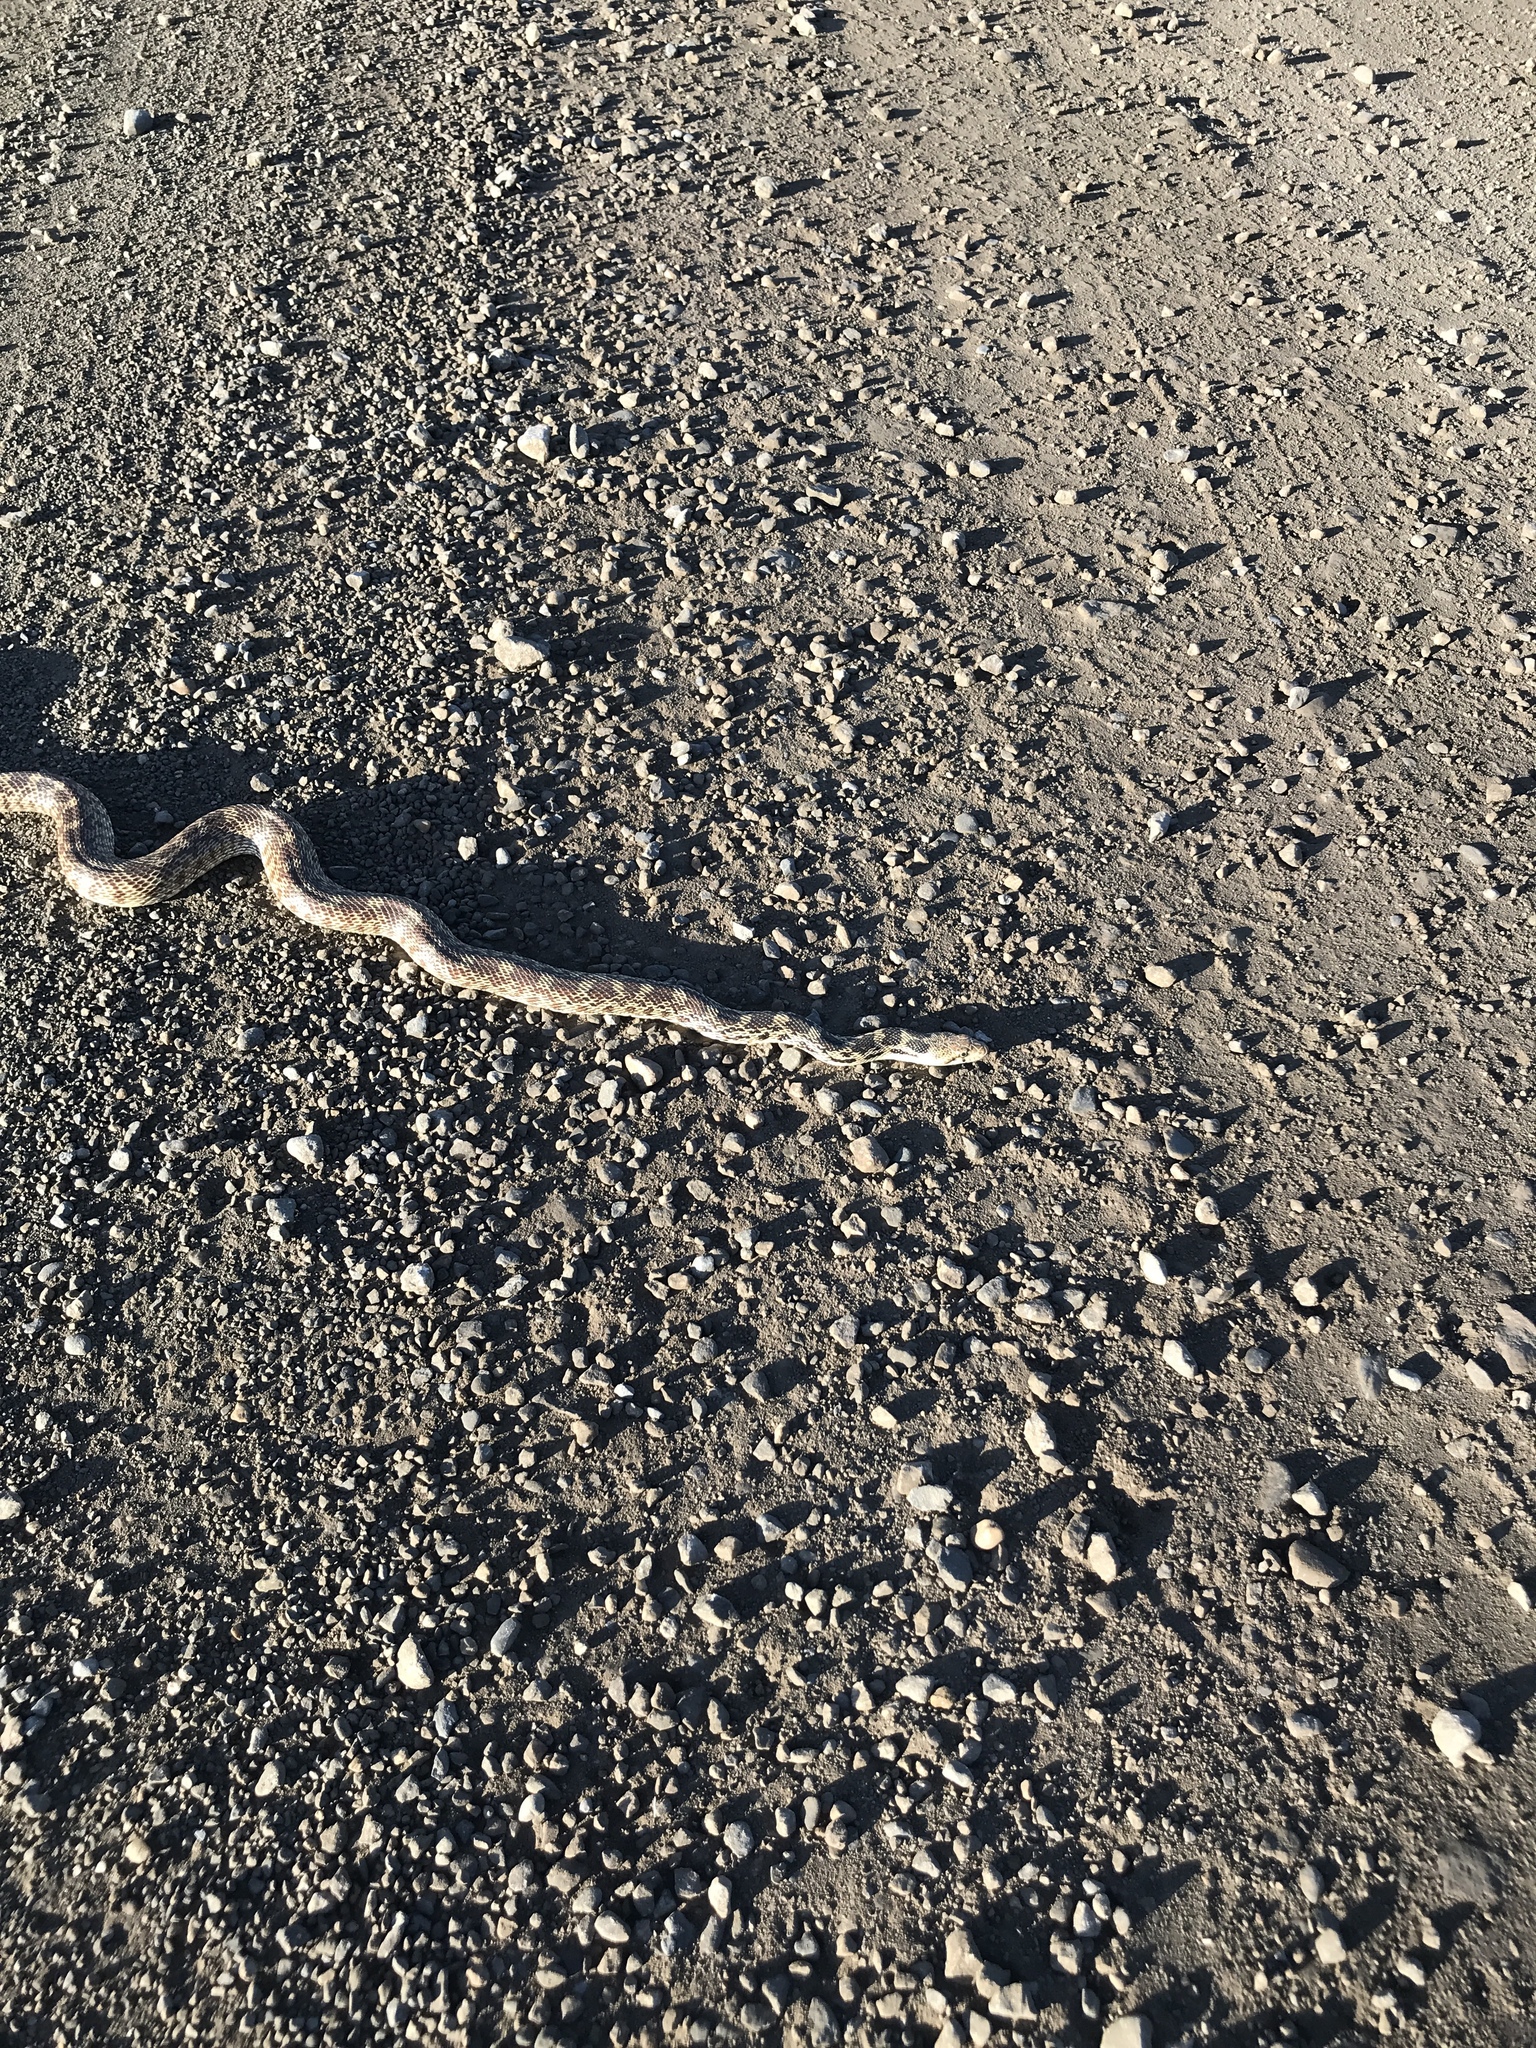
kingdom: Animalia
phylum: Chordata
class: Squamata
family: Colubridae
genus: Pituophis
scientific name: Pituophis catenifer
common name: Gopher snake
